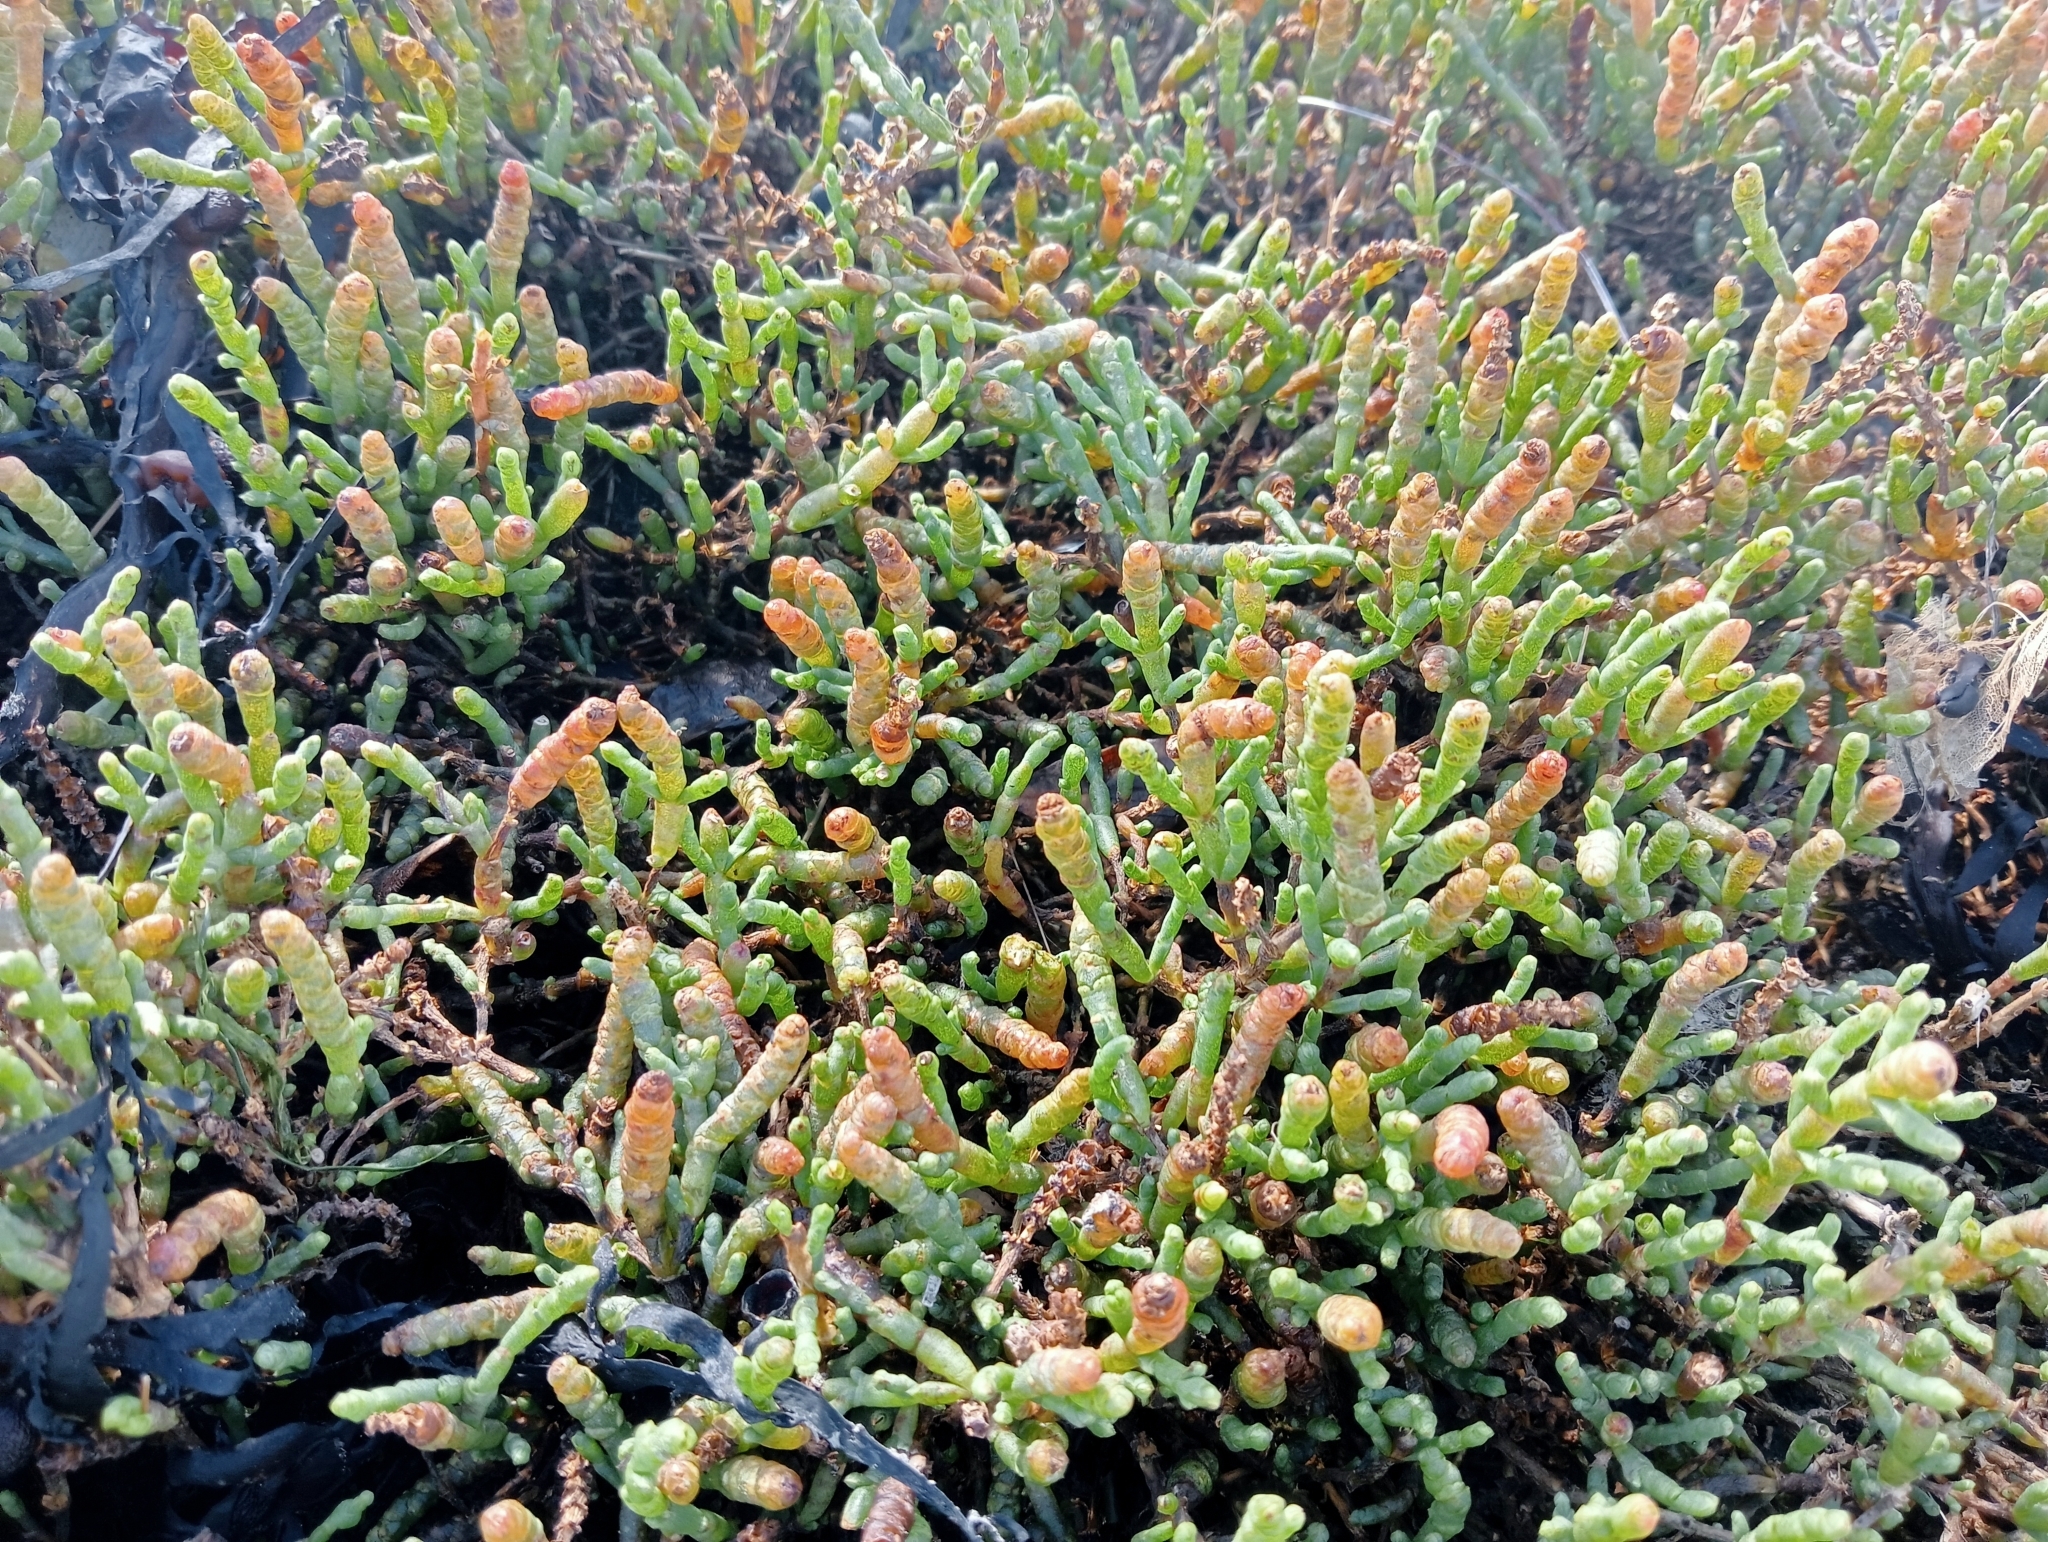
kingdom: Plantae
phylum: Tracheophyta
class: Magnoliopsida
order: Caryophyllales
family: Amaranthaceae
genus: Salicornia
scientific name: Salicornia quinqueflora
